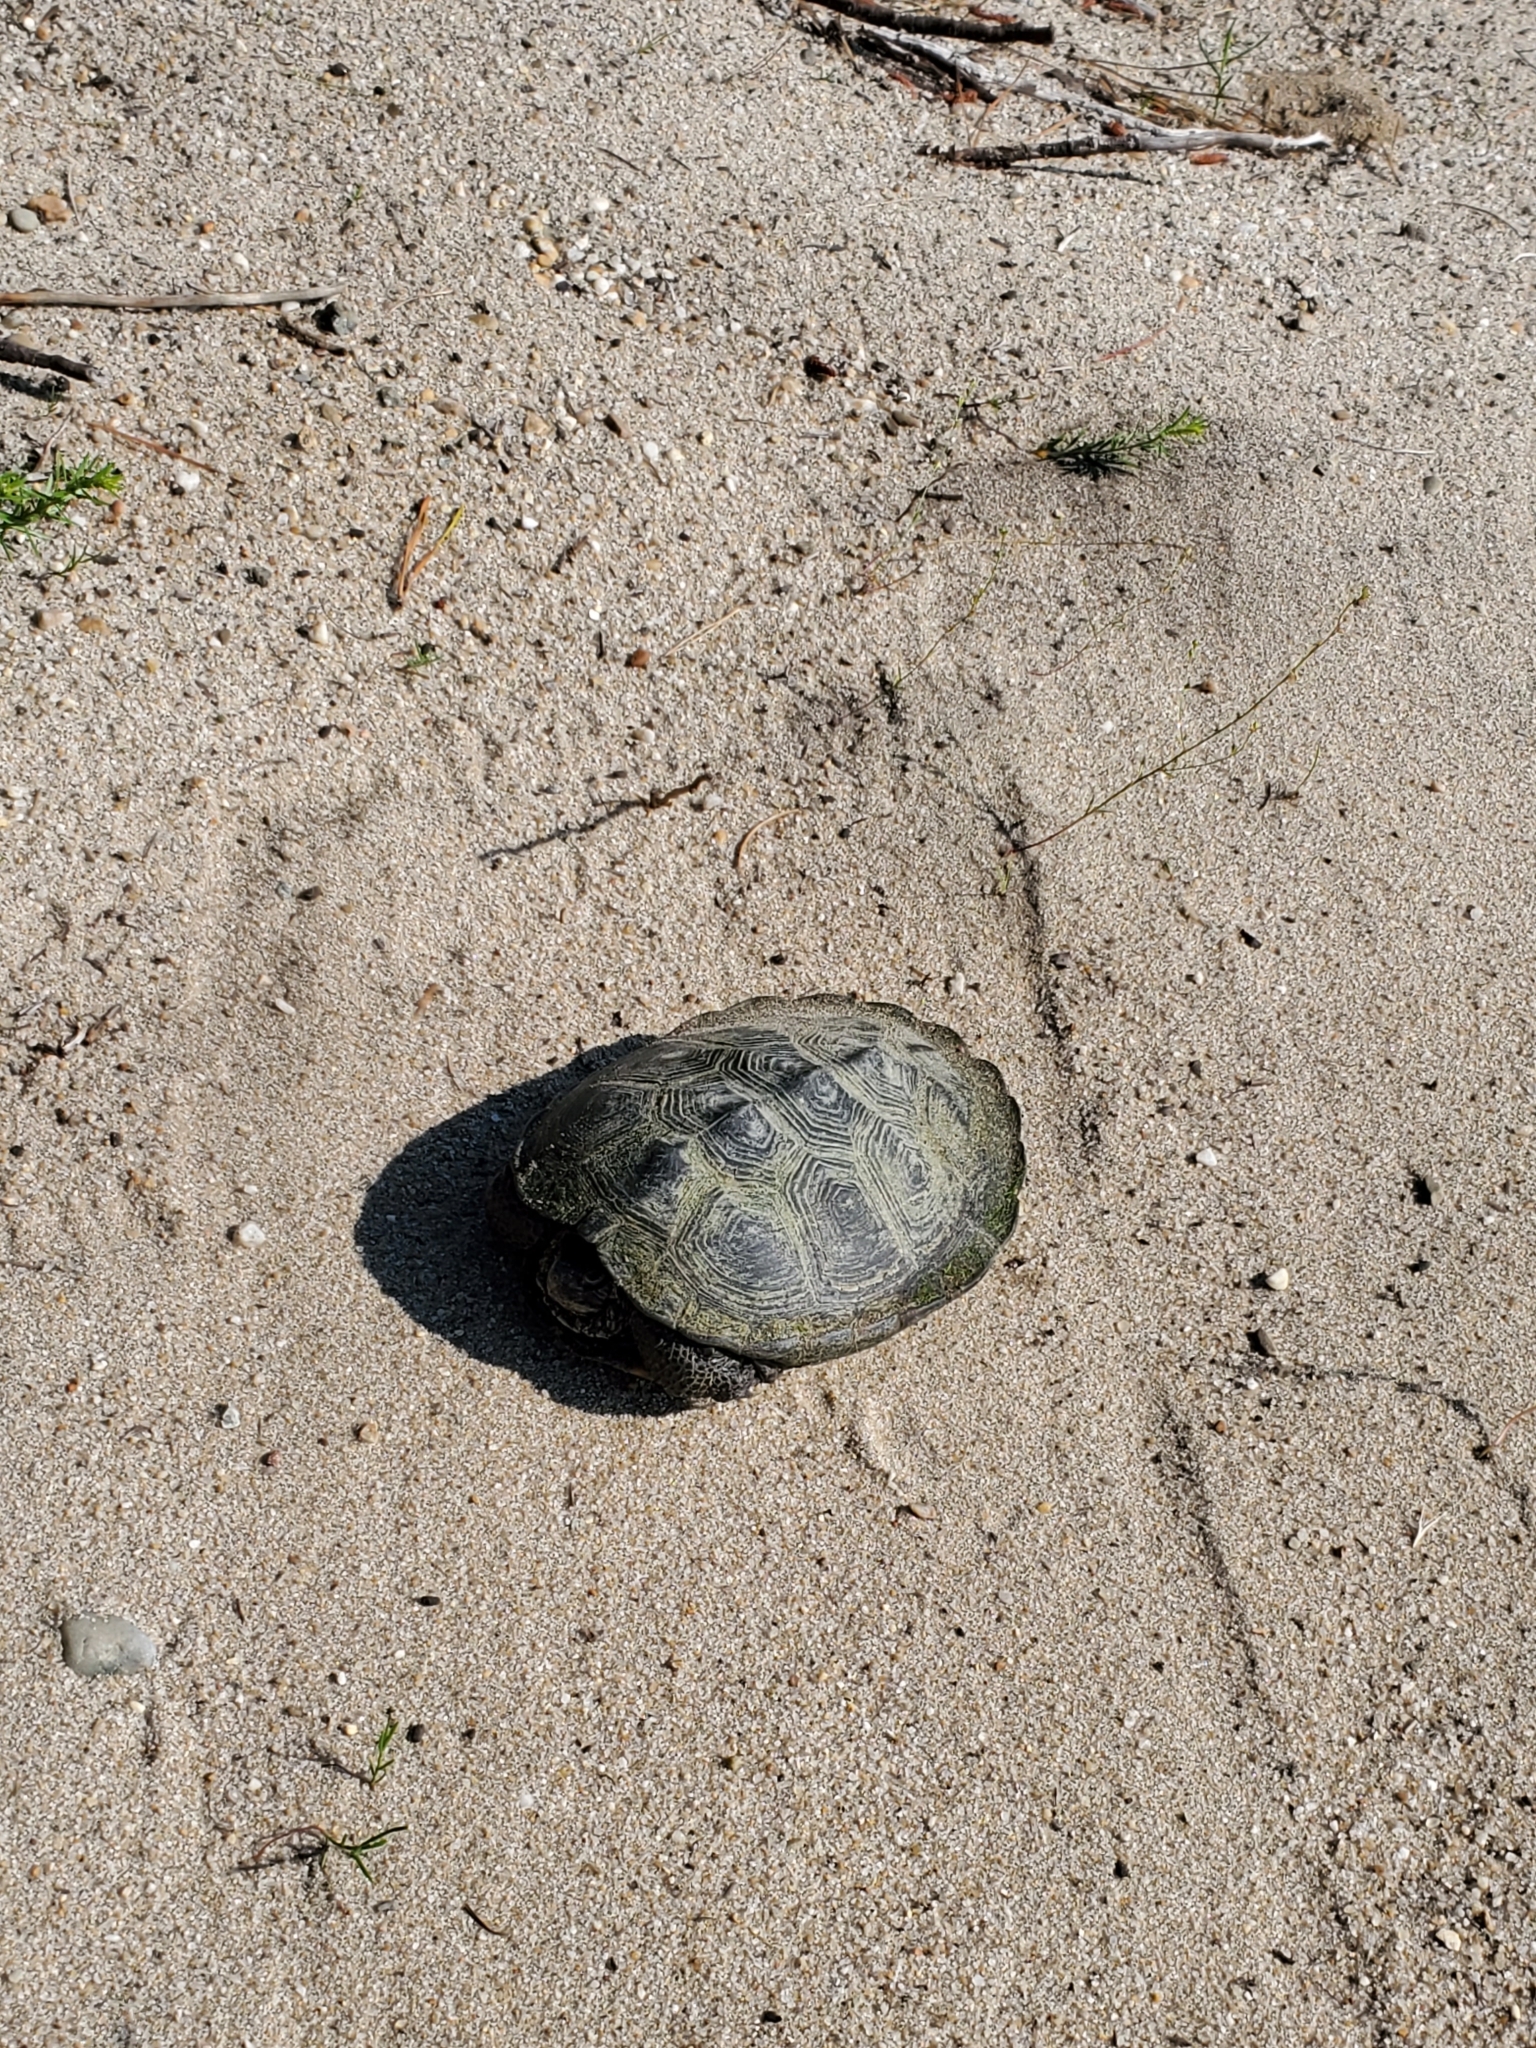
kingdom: Animalia
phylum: Chordata
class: Testudines
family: Emydidae
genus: Malaclemys
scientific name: Malaclemys terrapin
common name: Diamondback terrapin
